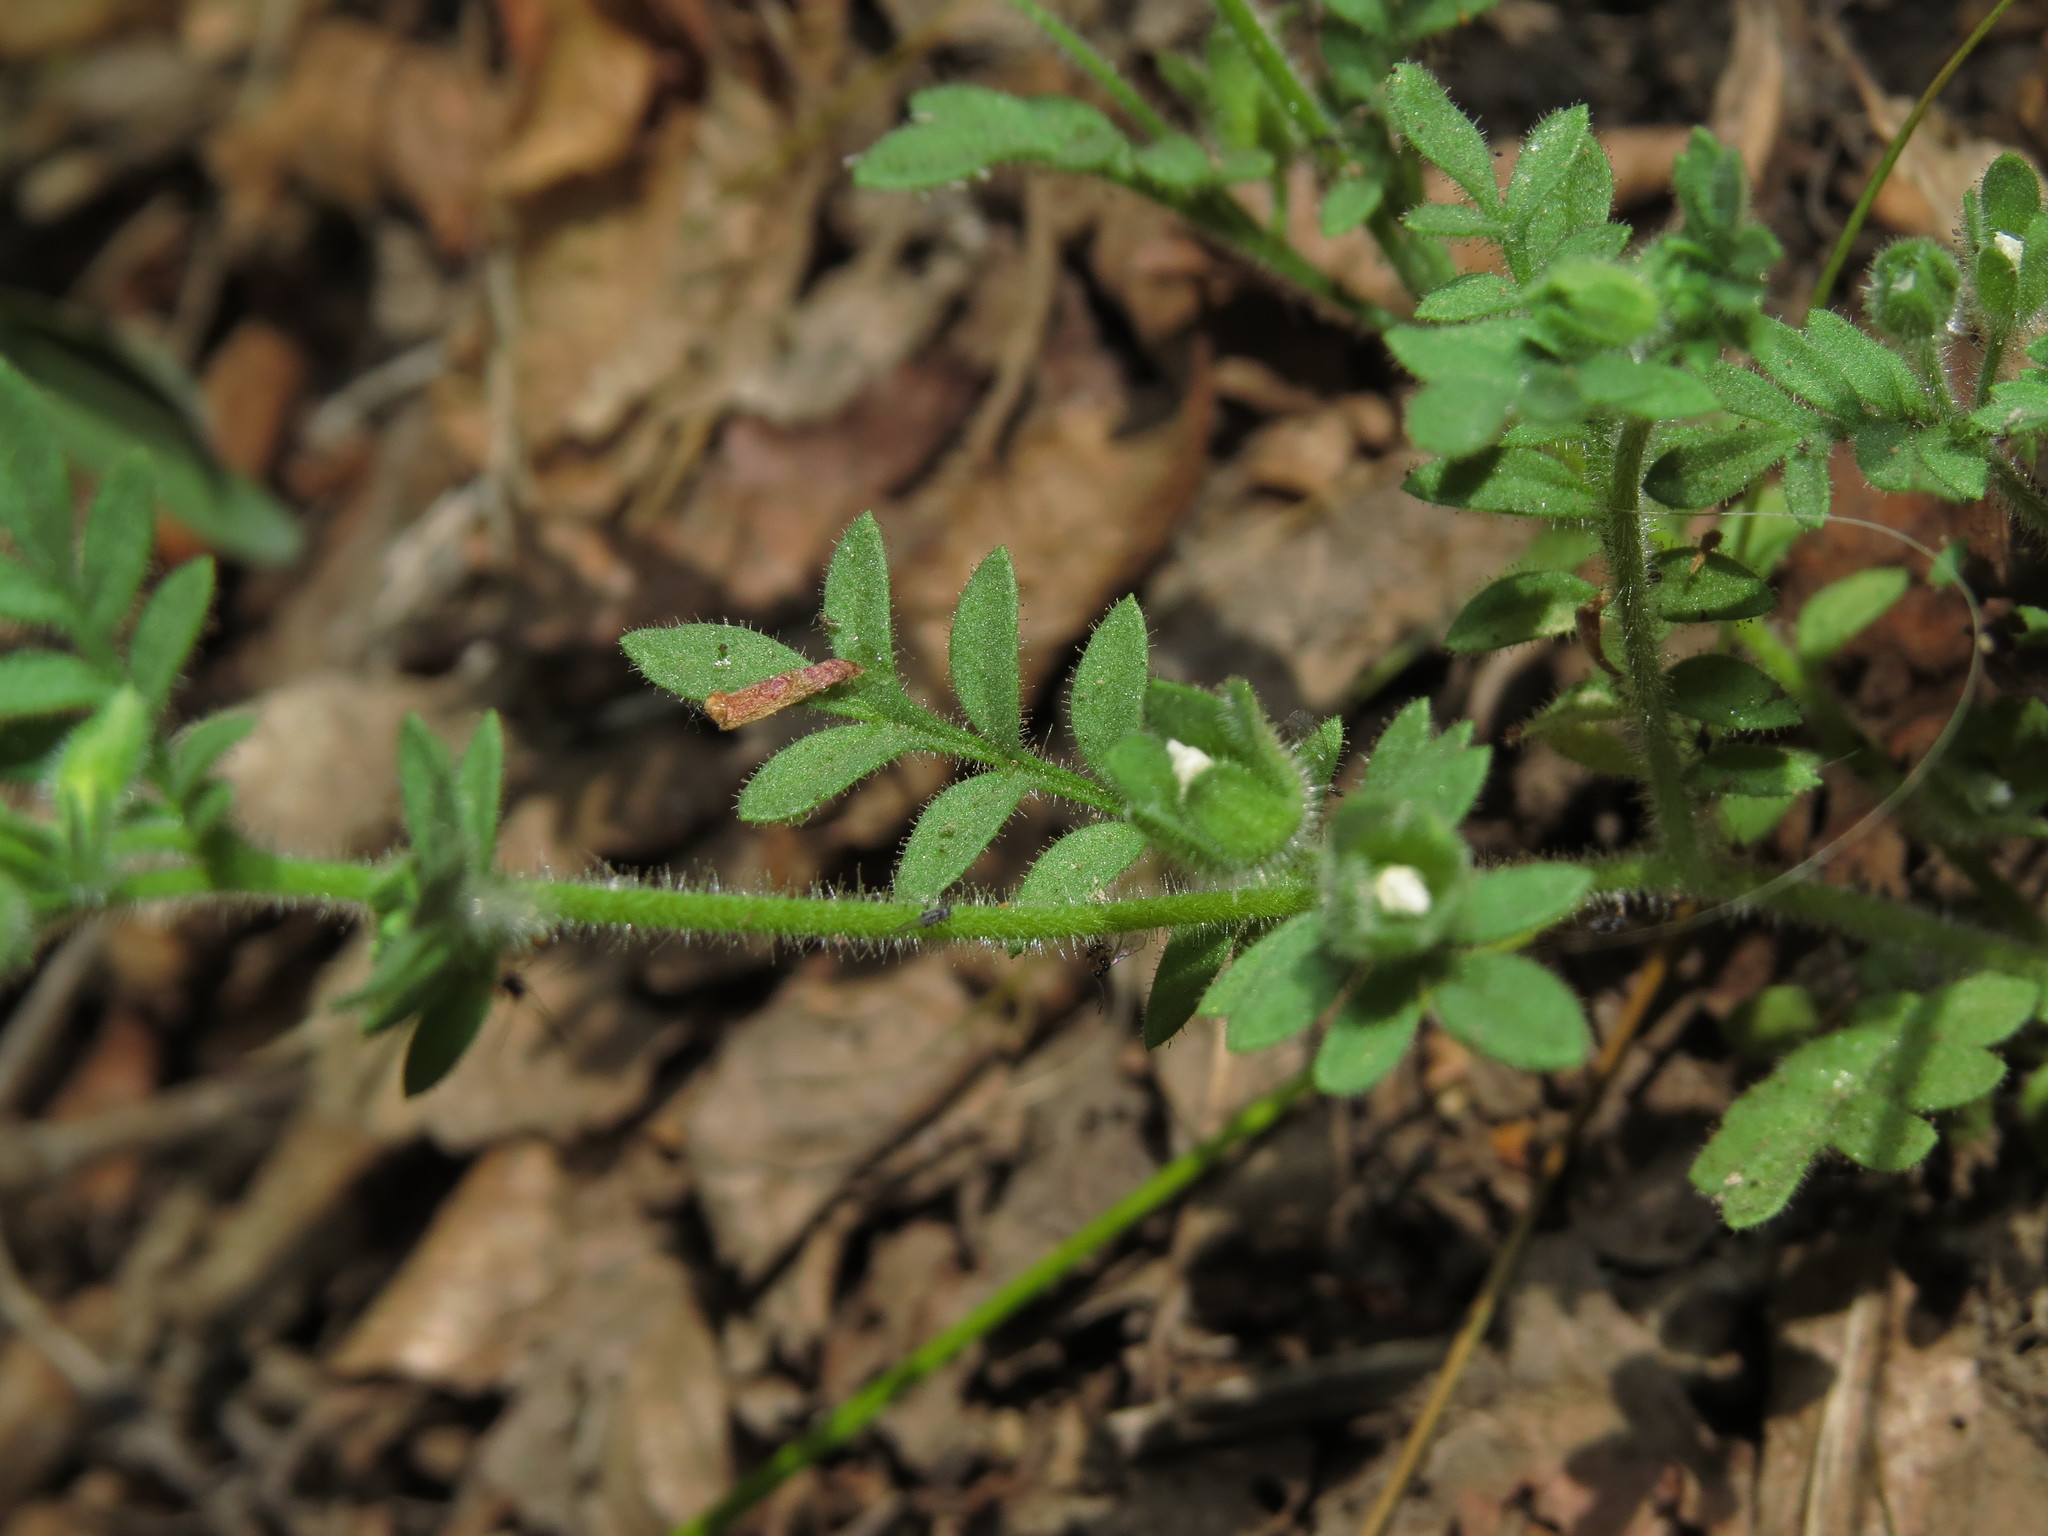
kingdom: Plantae
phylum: Tracheophyta
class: Magnoliopsida
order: Ericales
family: Polemoniaceae
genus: Polemonium
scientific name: Polemonium micranthum
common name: Annual jacob's-ladder
